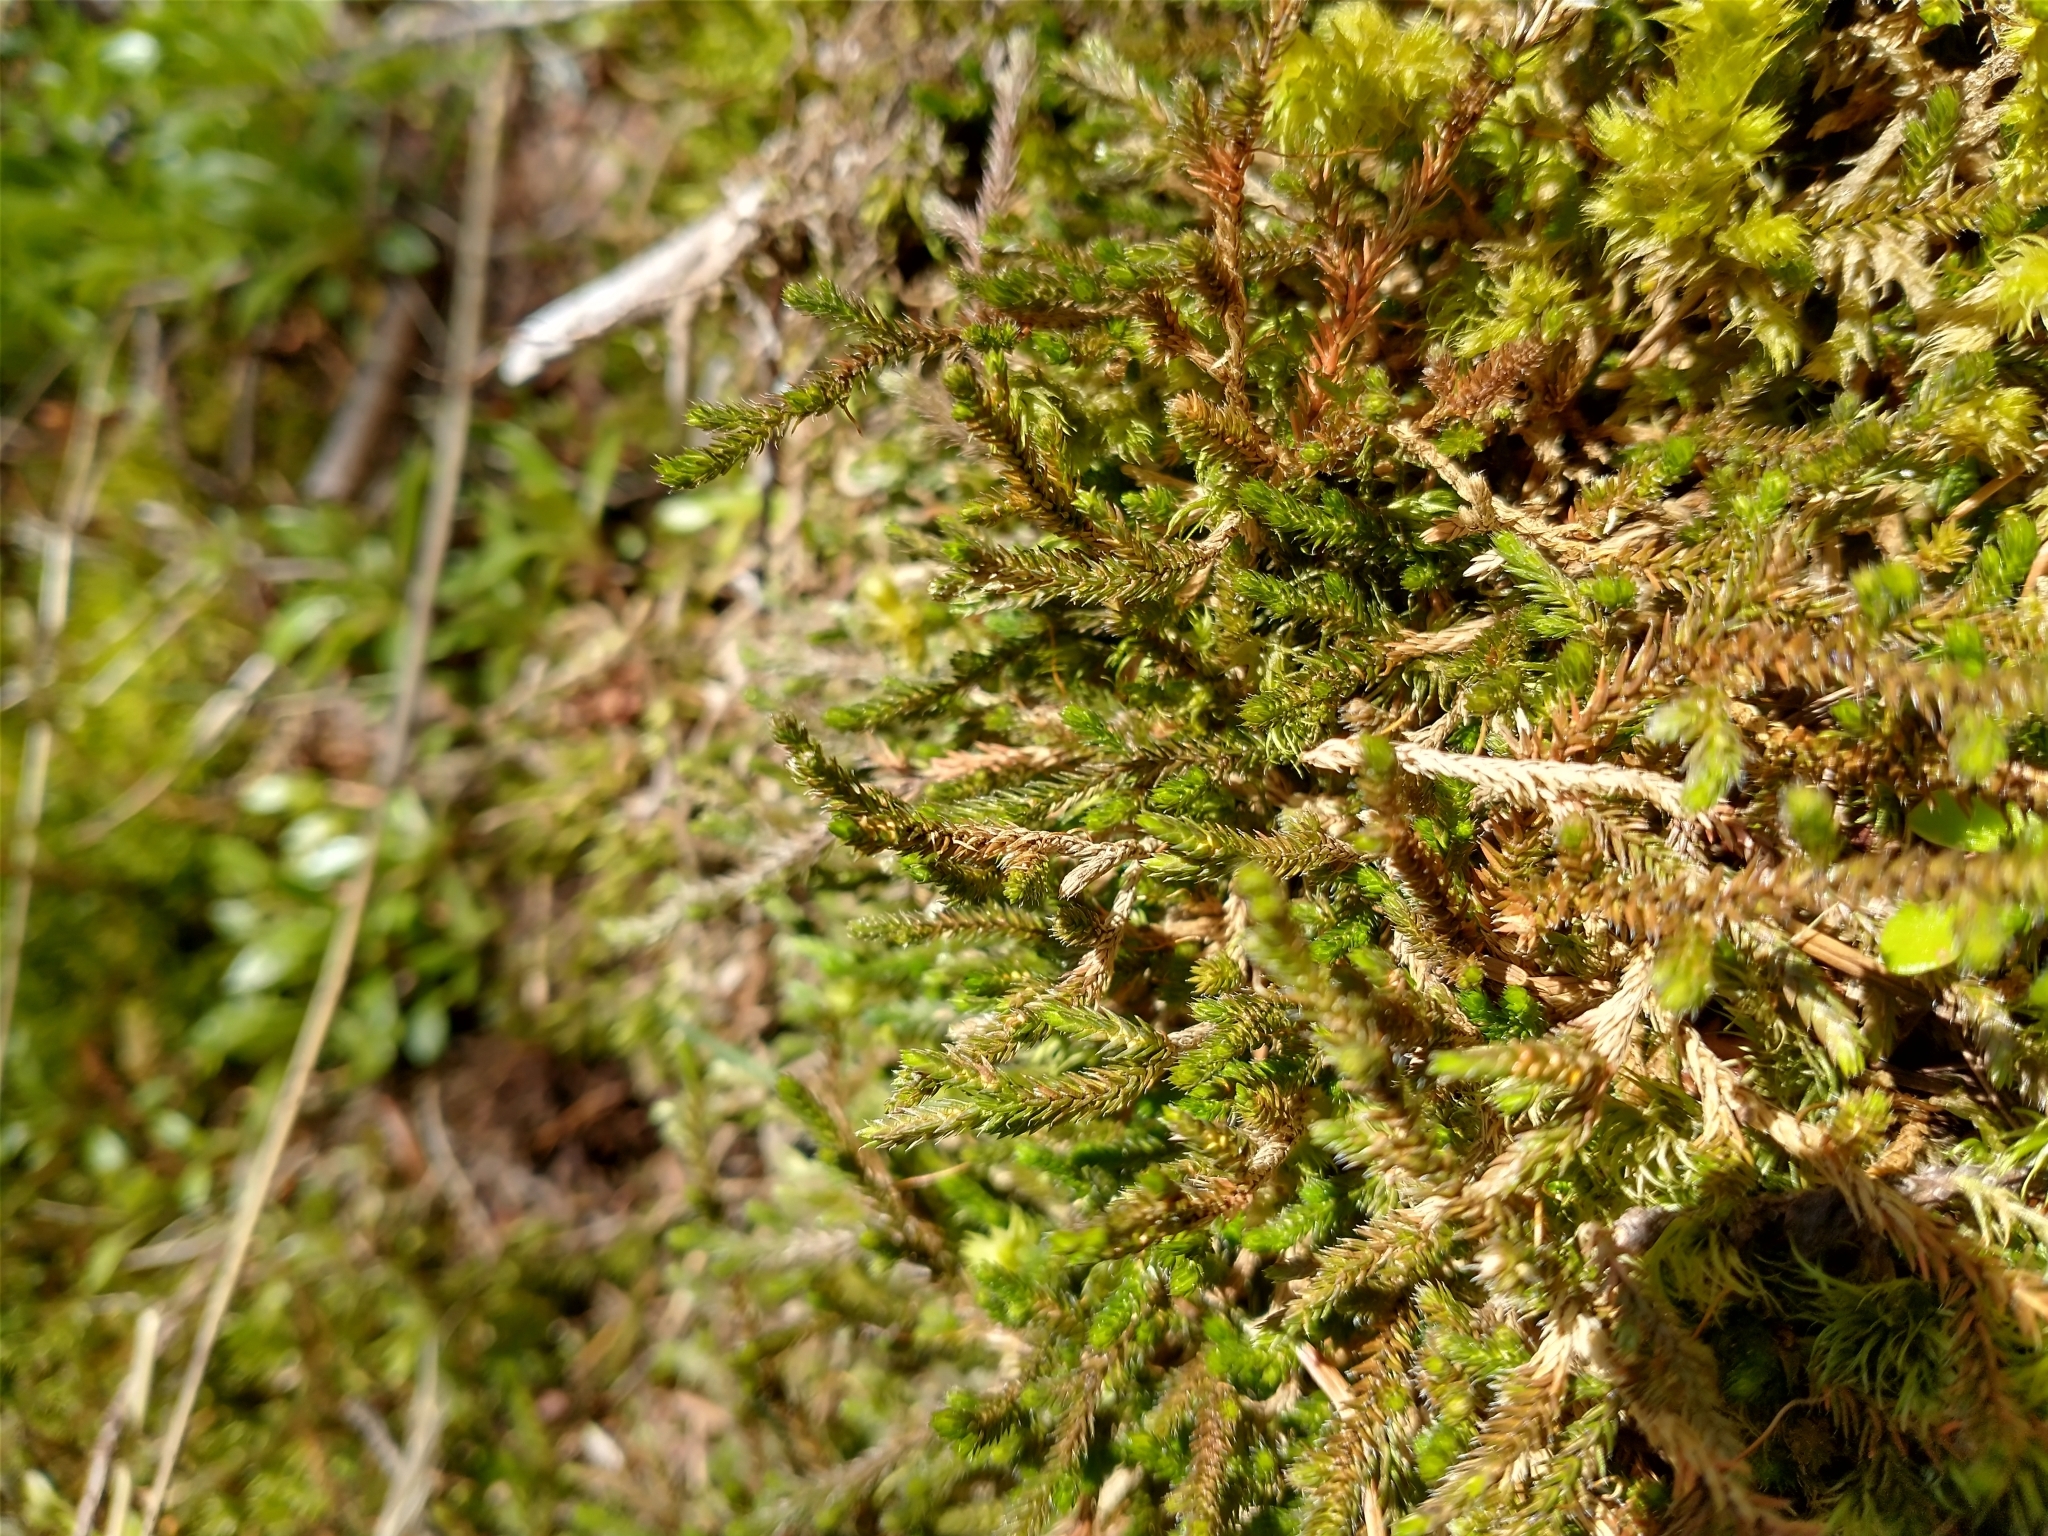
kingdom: Plantae
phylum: Tracheophyta
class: Lycopodiopsida
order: Selaginellales
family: Selaginellaceae
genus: Selaginella
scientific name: Selaginella wallacei
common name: Wallace's selaginella
